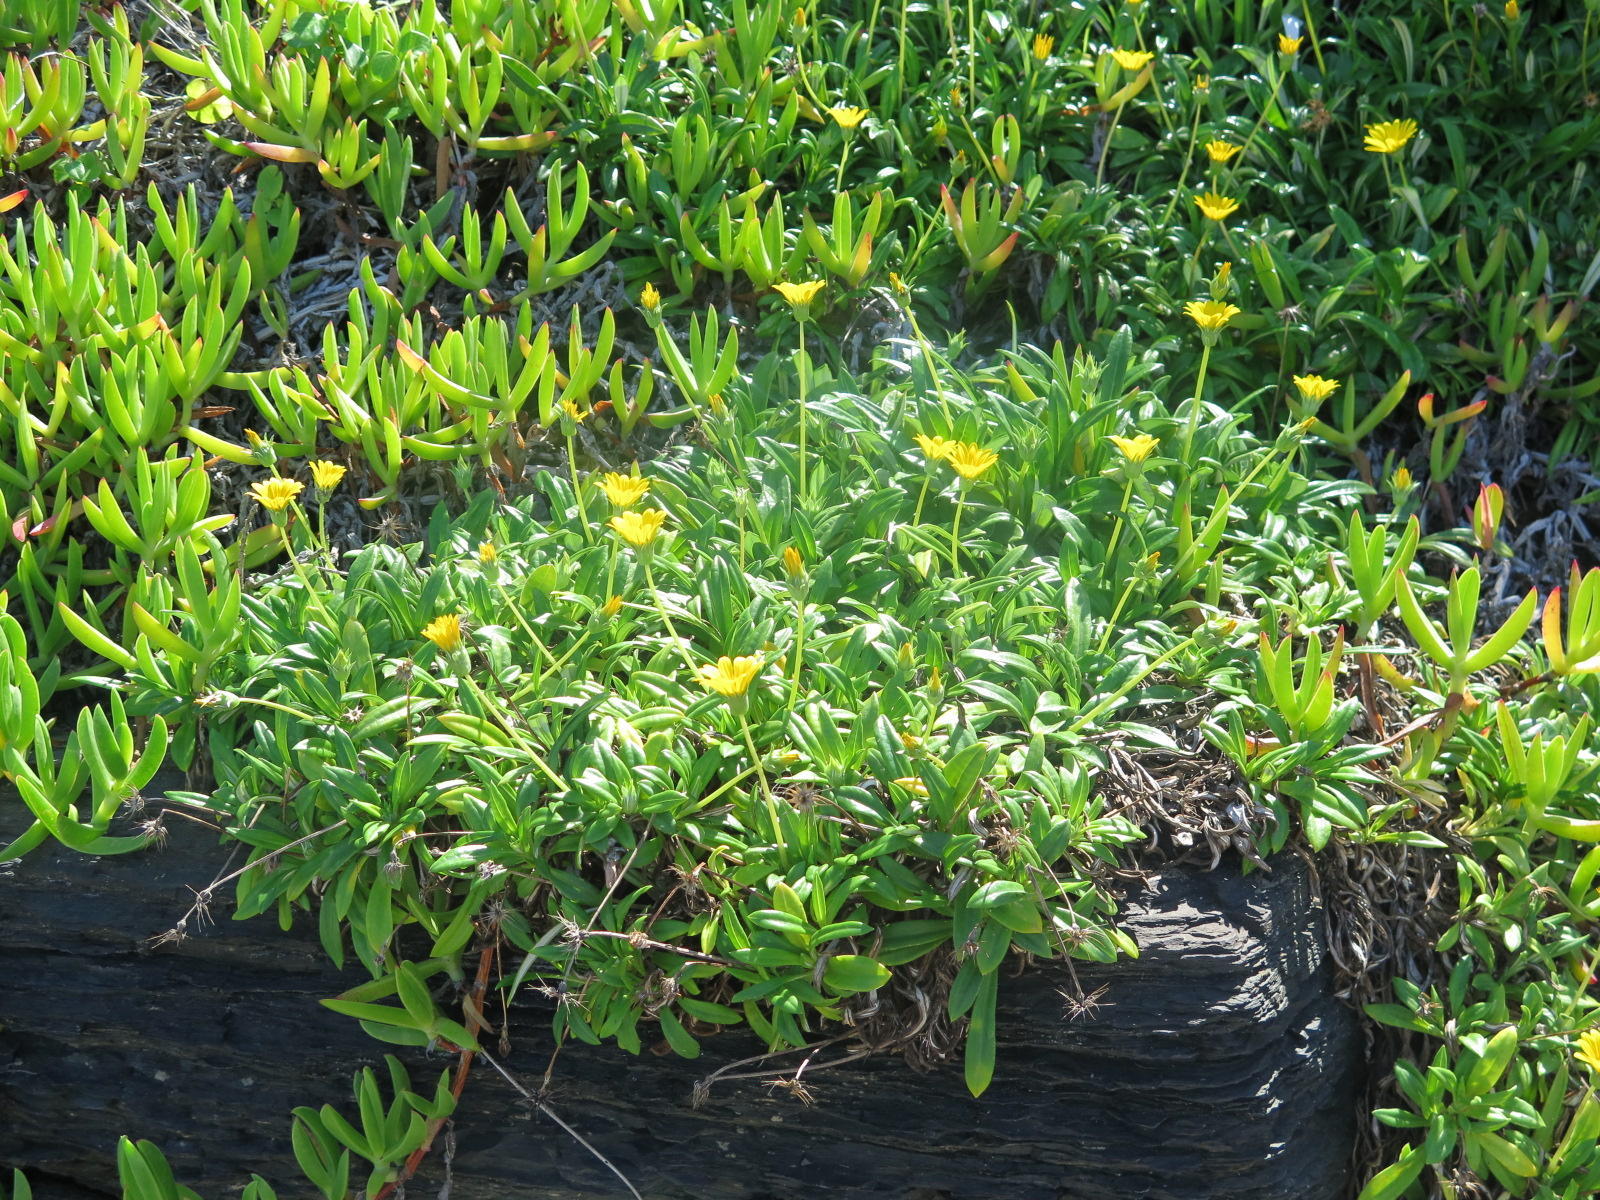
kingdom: Plantae
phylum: Tracheophyta
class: Magnoliopsida
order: Asterales
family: Asteraceae
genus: Gazania
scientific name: Gazania rigens
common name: Treasureflower
